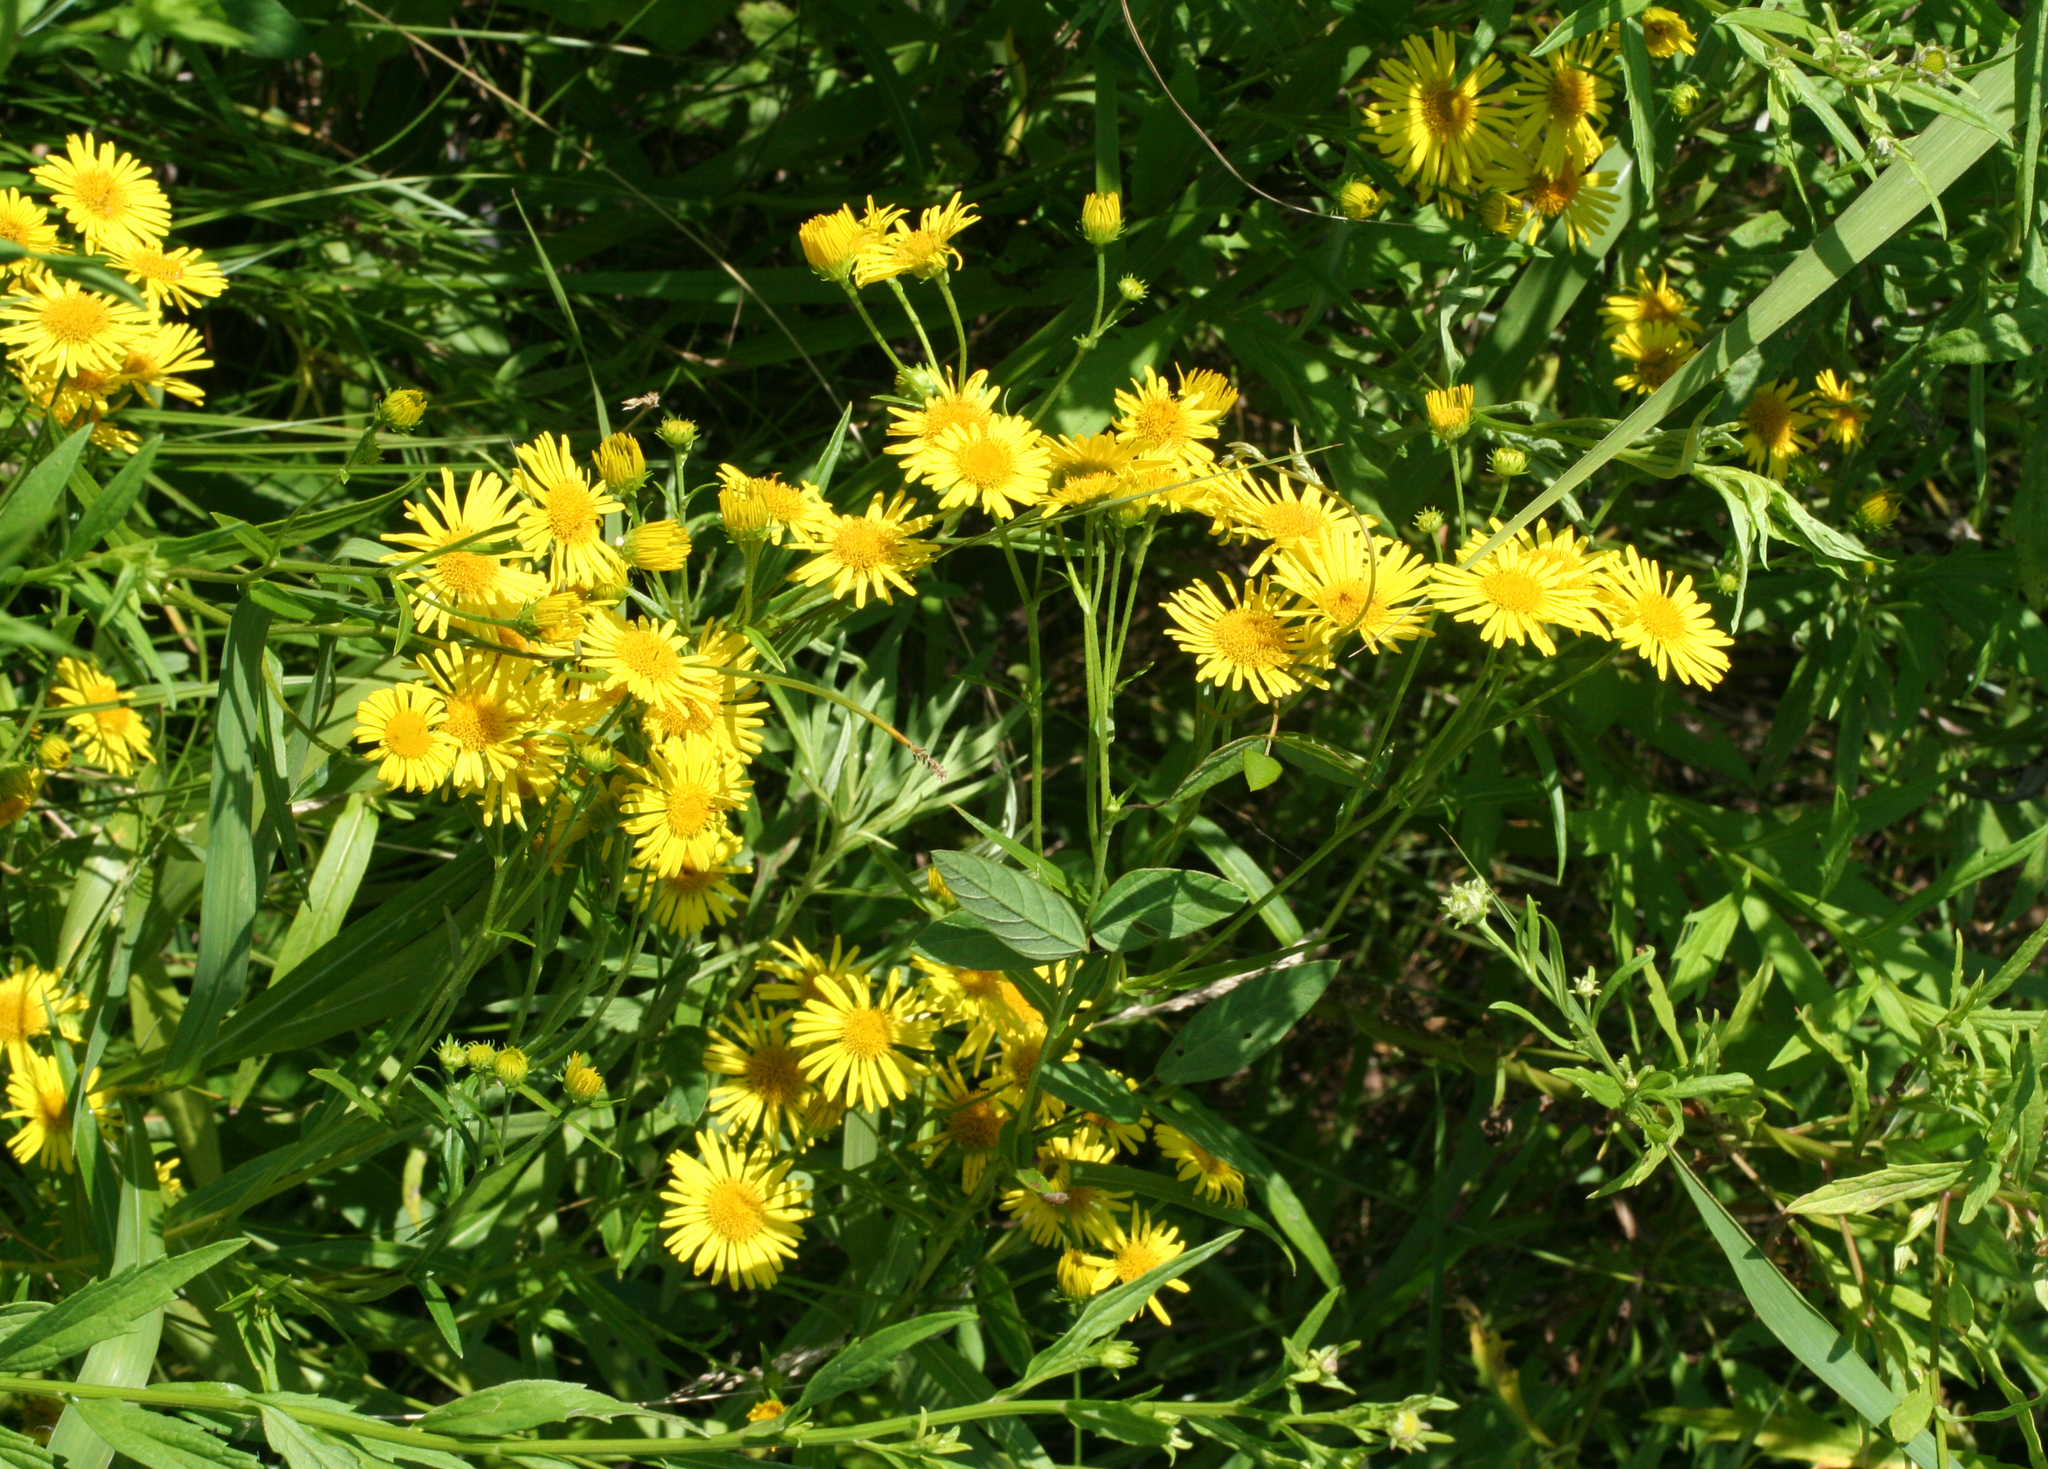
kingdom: Plantae
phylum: Tracheophyta
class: Magnoliopsida
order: Asterales
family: Asteraceae
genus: Inula
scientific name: Inula japonica
